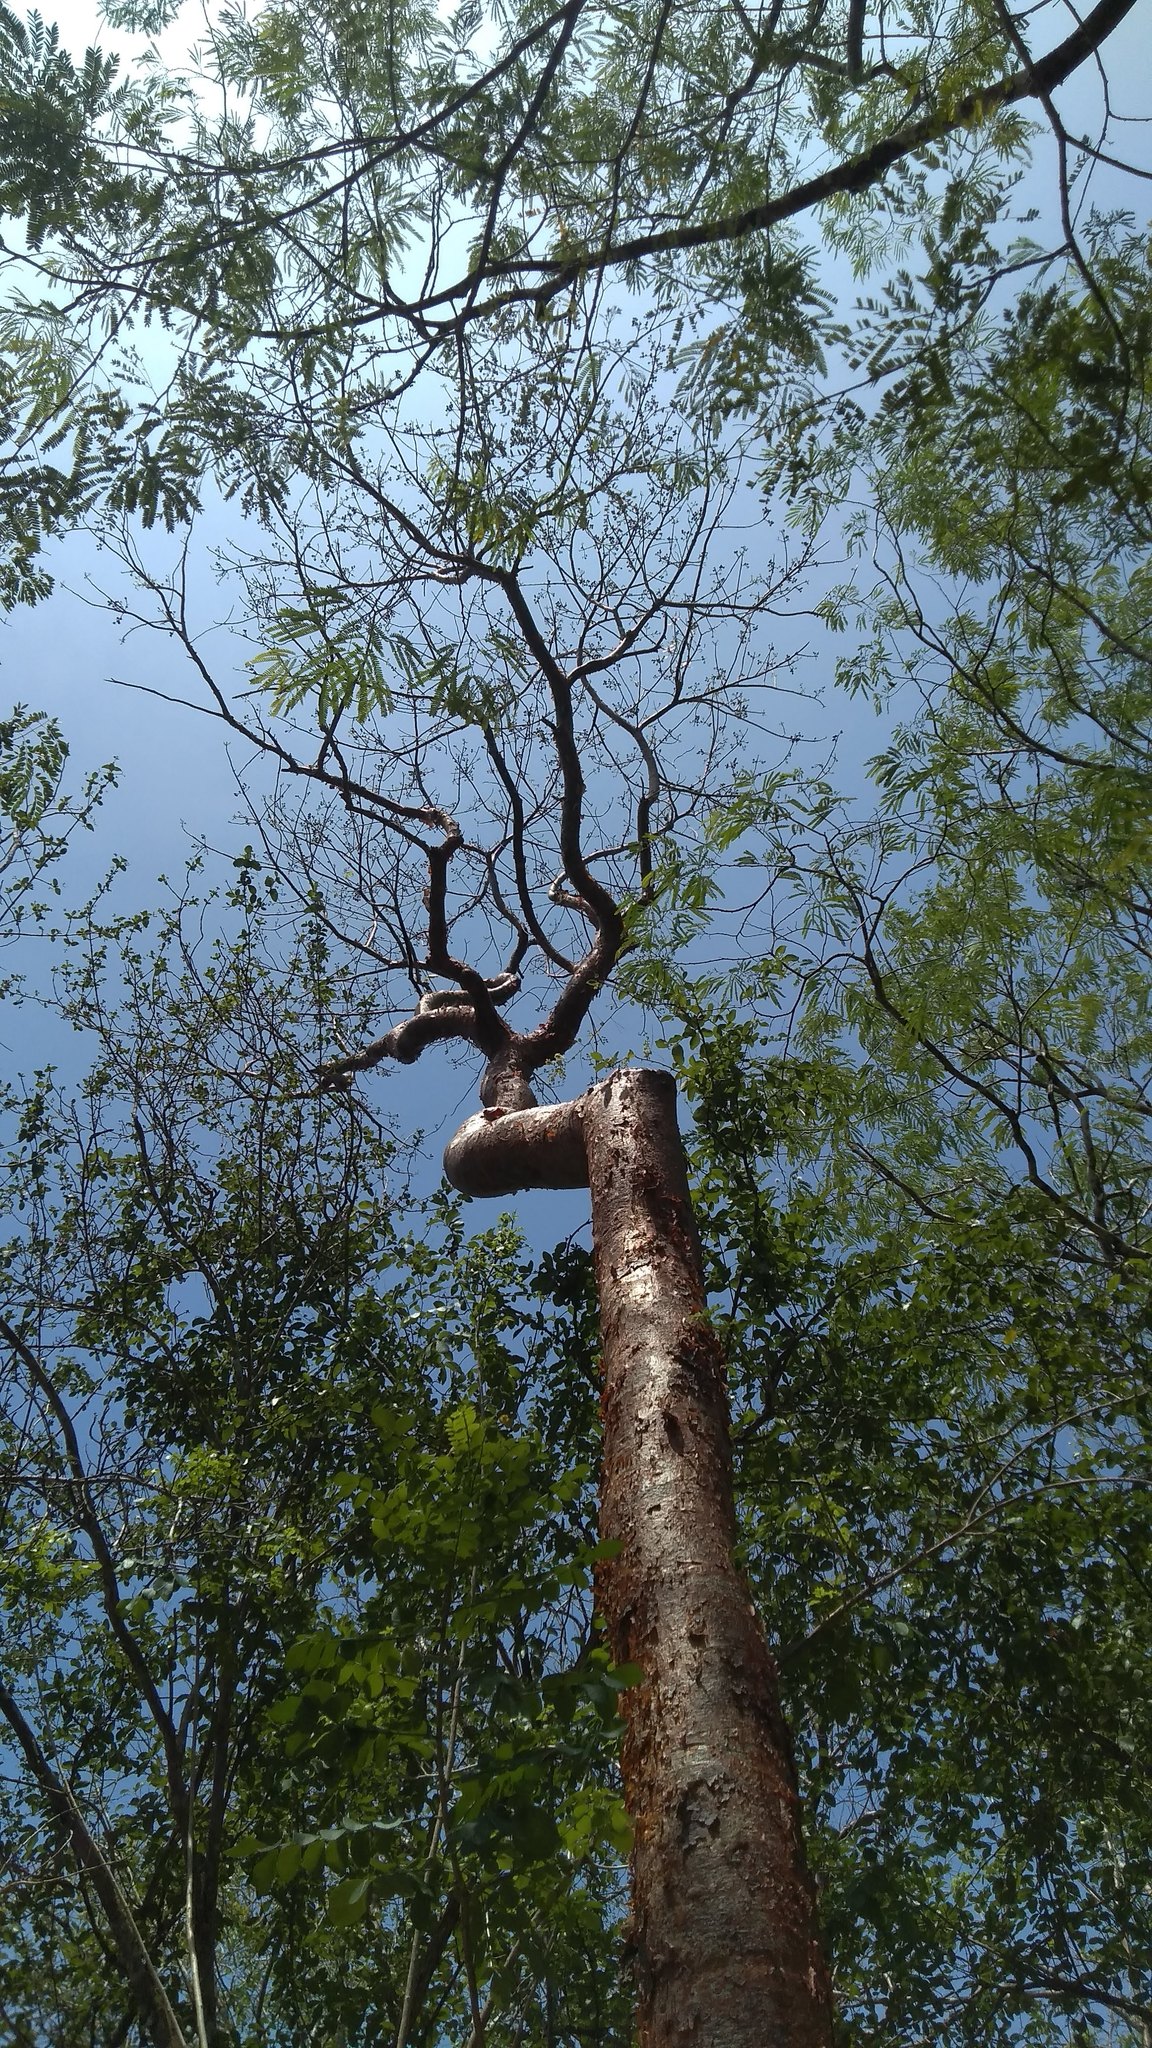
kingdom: Plantae
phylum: Tracheophyta
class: Magnoliopsida
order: Sapindales
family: Burseraceae
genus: Bursera
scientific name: Bursera simaruba
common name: Turpentine tree
